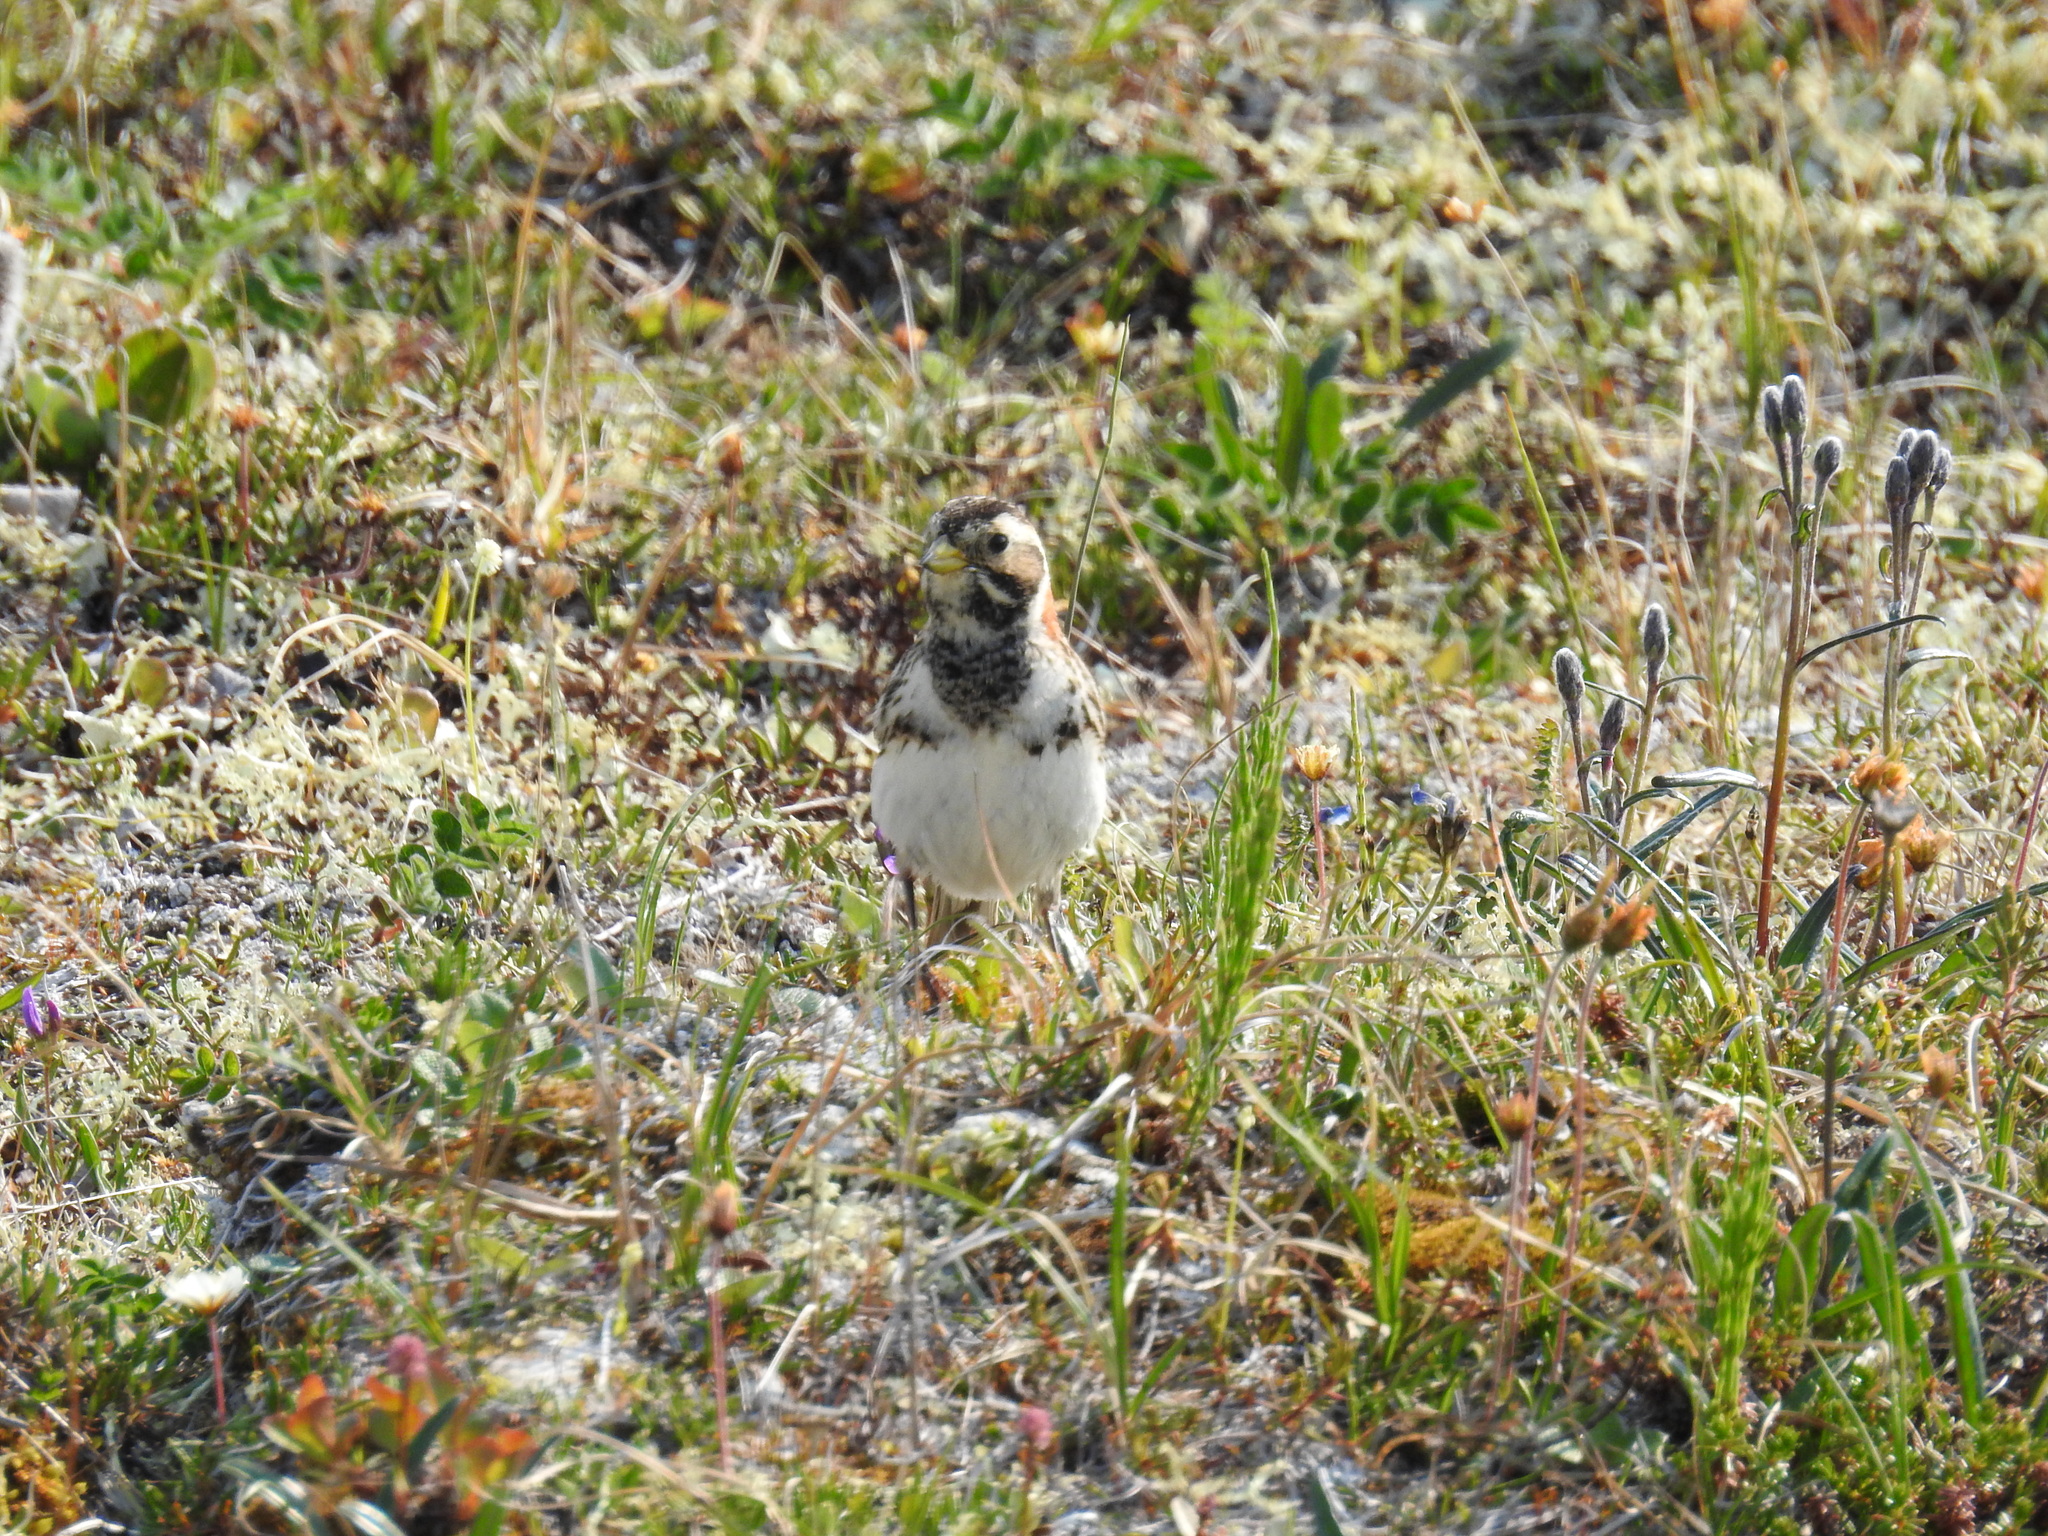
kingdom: Animalia
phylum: Chordata
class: Aves
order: Passeriformes
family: Calcariidae
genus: Calcarius
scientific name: Calcarius lapponicus
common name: Lapland longspur
